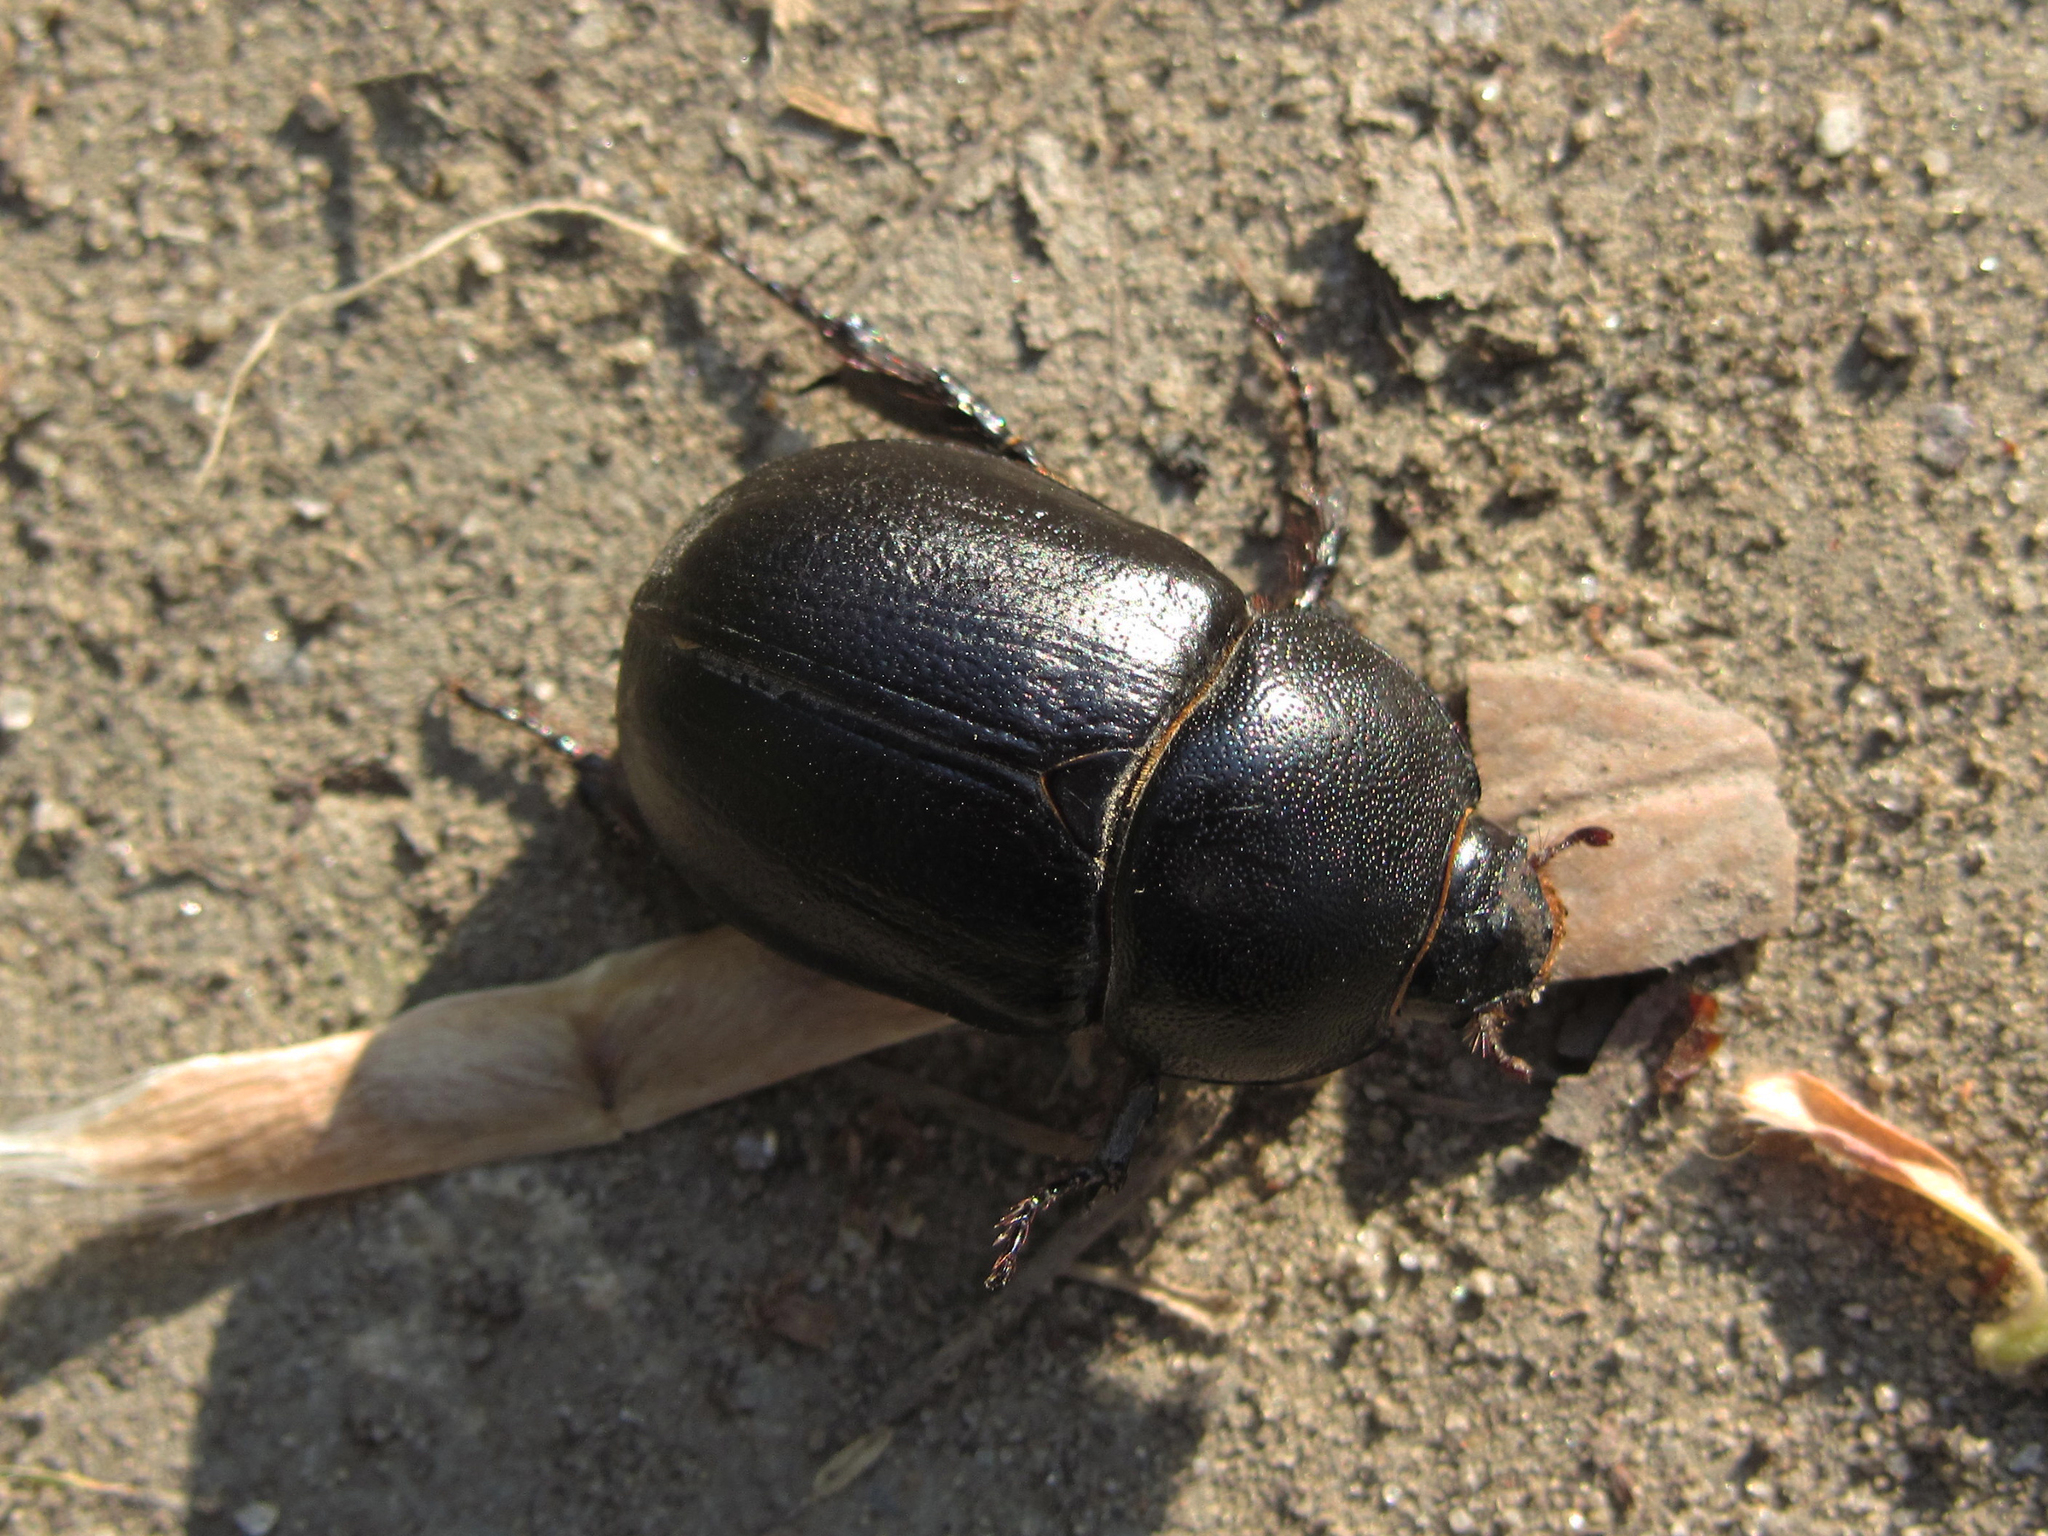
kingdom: Animalia
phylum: Arthropoda
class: Insecta
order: Coleoptera
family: Scarabaeidae
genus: Pentodon
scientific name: Pentodon idiota
